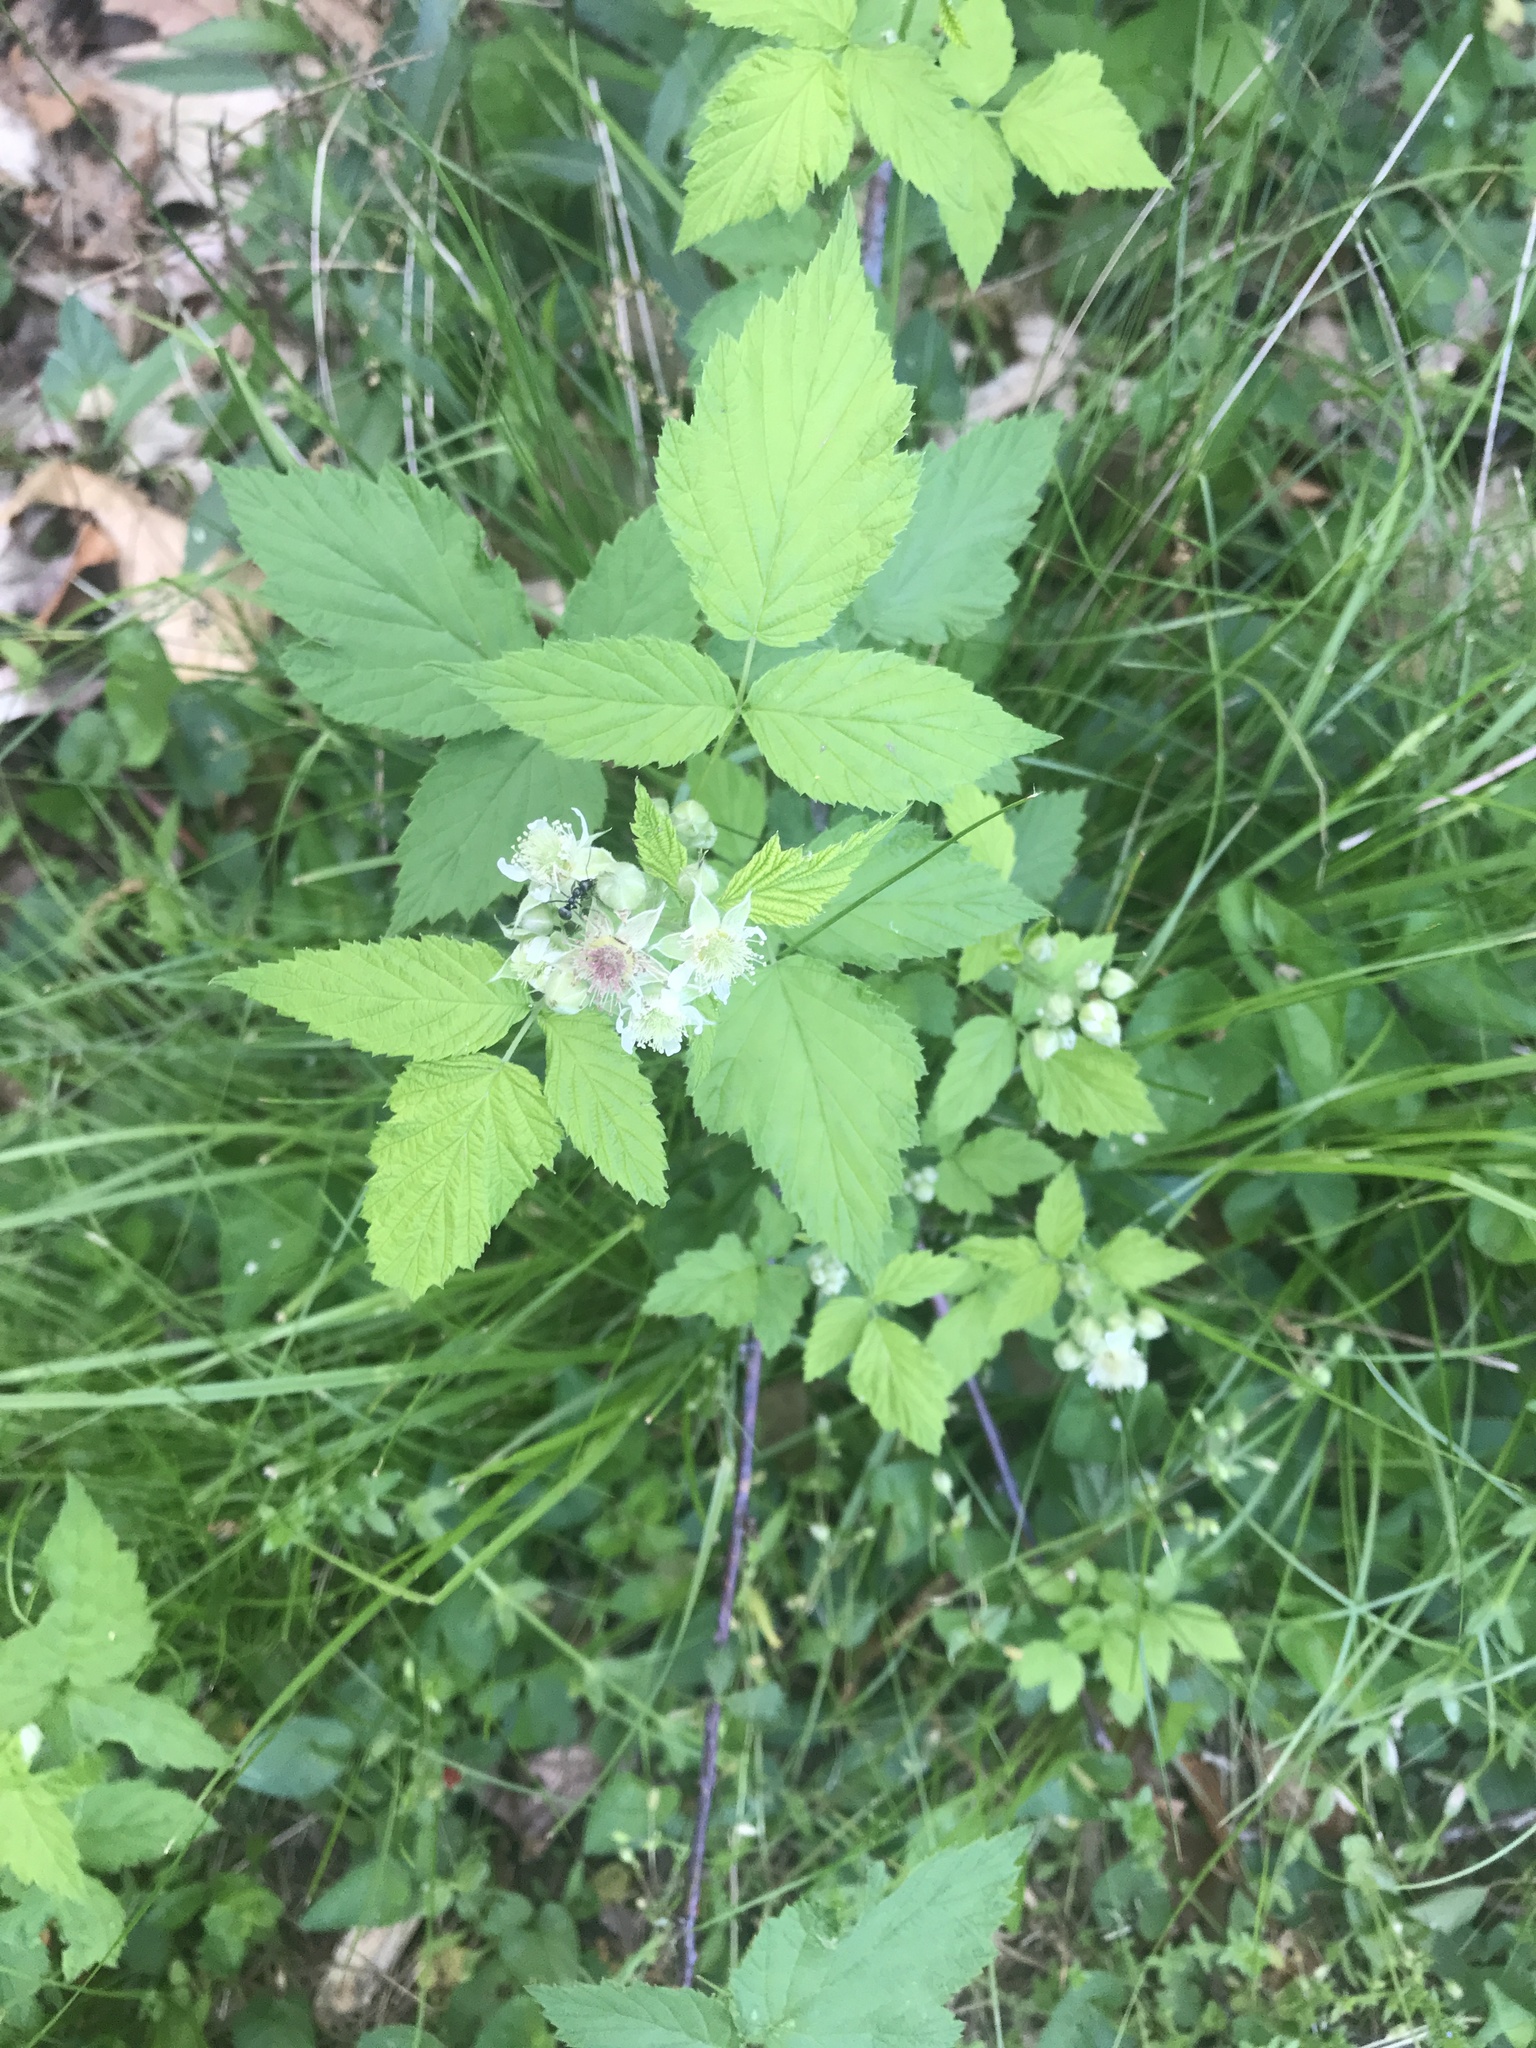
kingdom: Plantae
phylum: Tracheophyta
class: Magnoliopsida
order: Rosales
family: Rosaceae
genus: Rubus
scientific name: Rubus occidentalis
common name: Black raspberry
